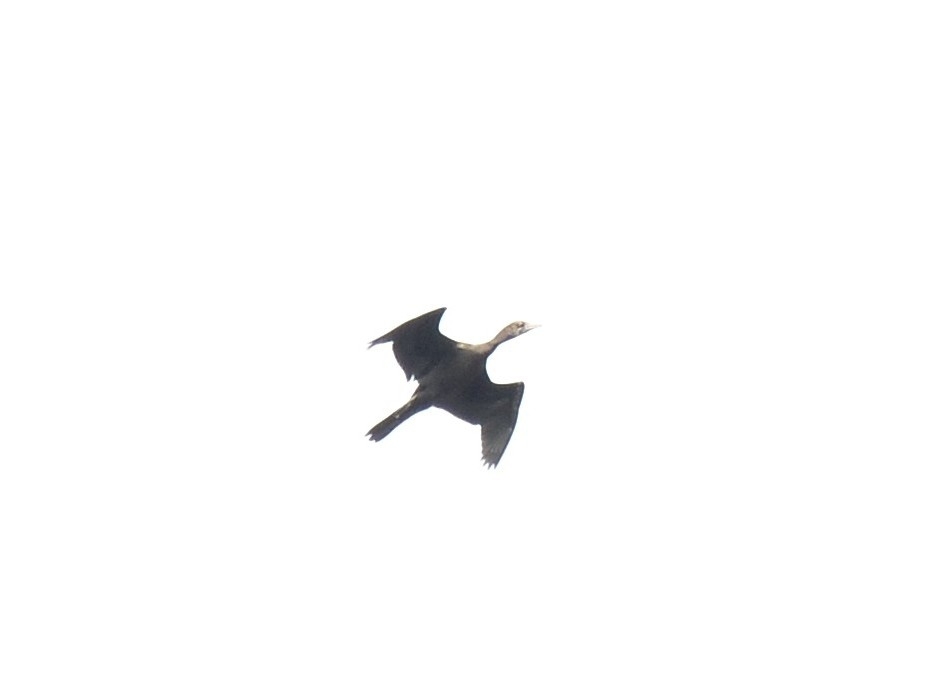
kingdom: Animalia
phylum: Chordata
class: Aves
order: Suliformes
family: Phalacrocoracidae
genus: Microcarbo
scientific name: Microcarbo niger
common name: Little cormorant
